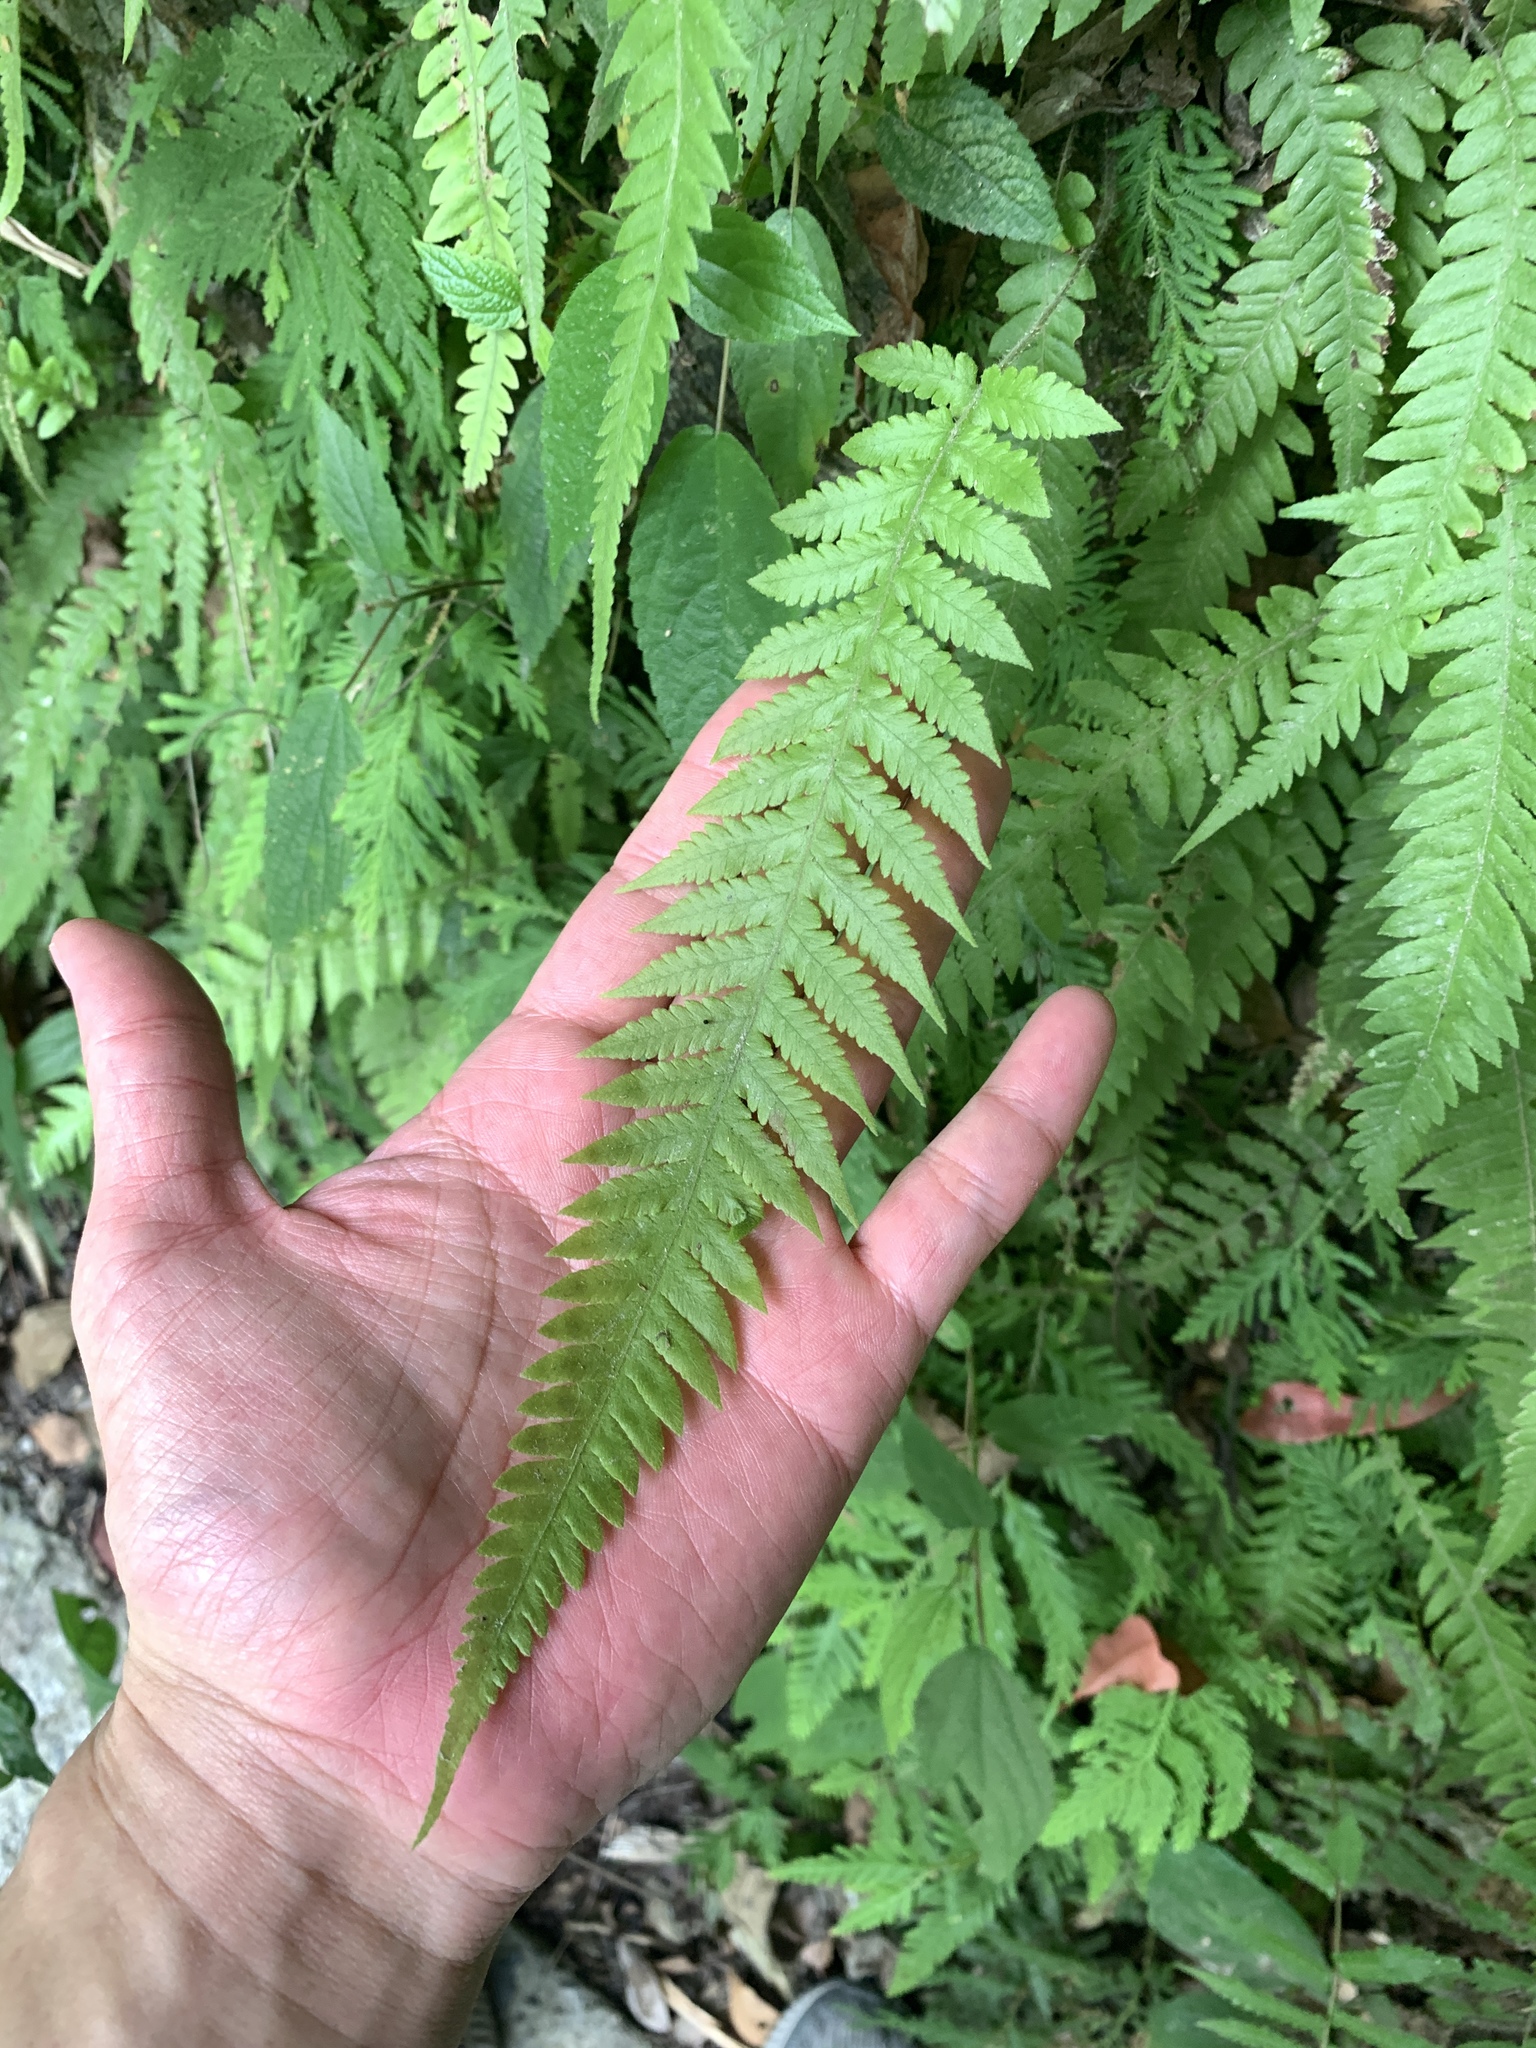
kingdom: Plantae
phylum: Tracheophyta
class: Polypodiopsida
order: Polypodiales
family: Thelypteridaceae
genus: Phegopteris
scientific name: Phegopteris decursive-pinnata
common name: Japanese beech fern
